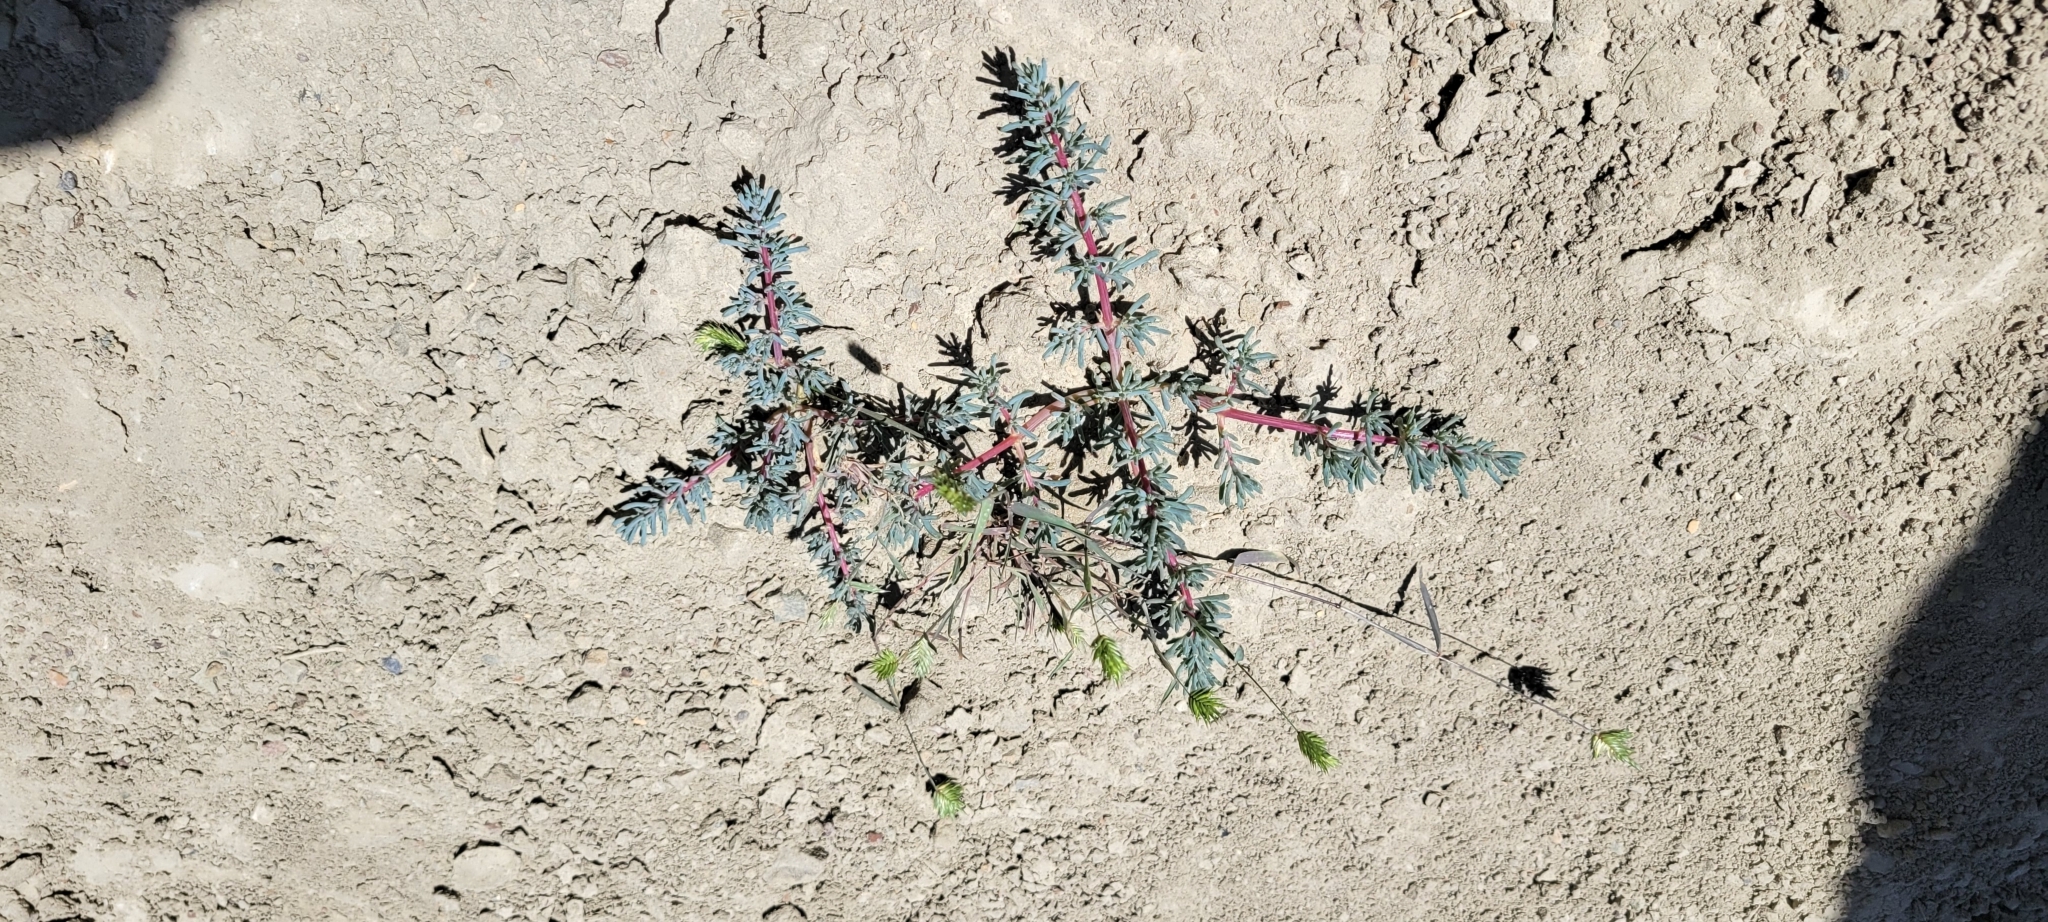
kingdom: Plantae
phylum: Tracheophyta
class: Magnoliopsida
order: Caryophyllales
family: Amaranthaceae
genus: Halogeton
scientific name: Halogeton glomeratus
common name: Saltlover
